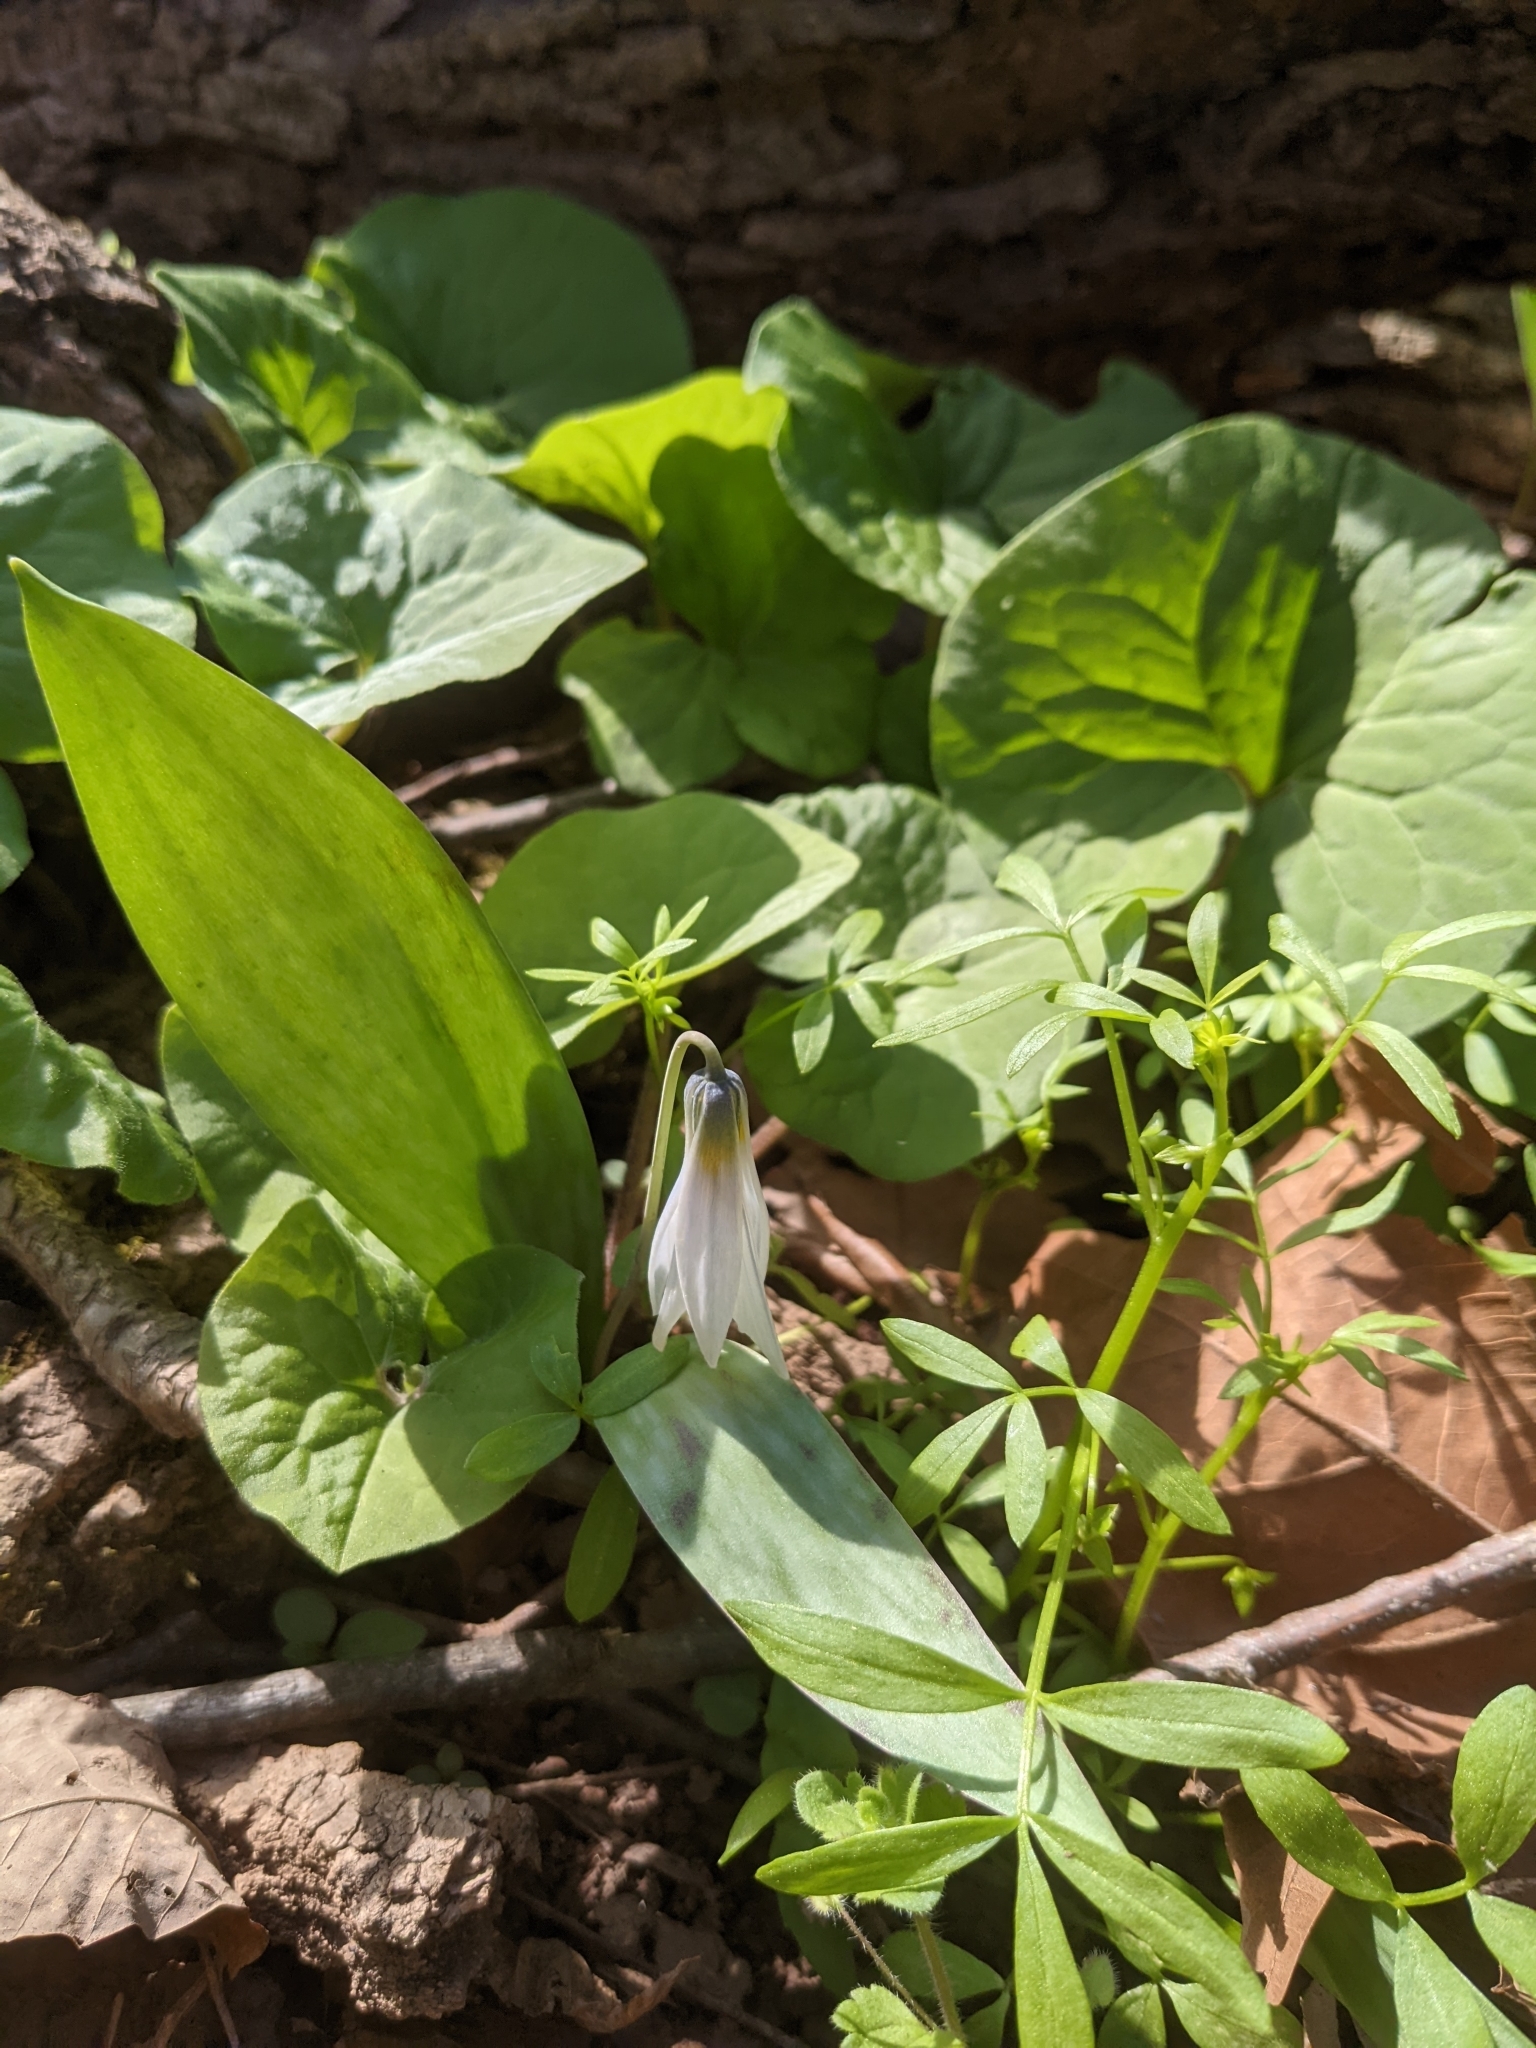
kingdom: Plantae
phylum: Tracheophyta
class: Liliopsida
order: Liliales
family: Liliaceae
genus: Erythronium
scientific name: Erythronium albidum
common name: White trout-lily
